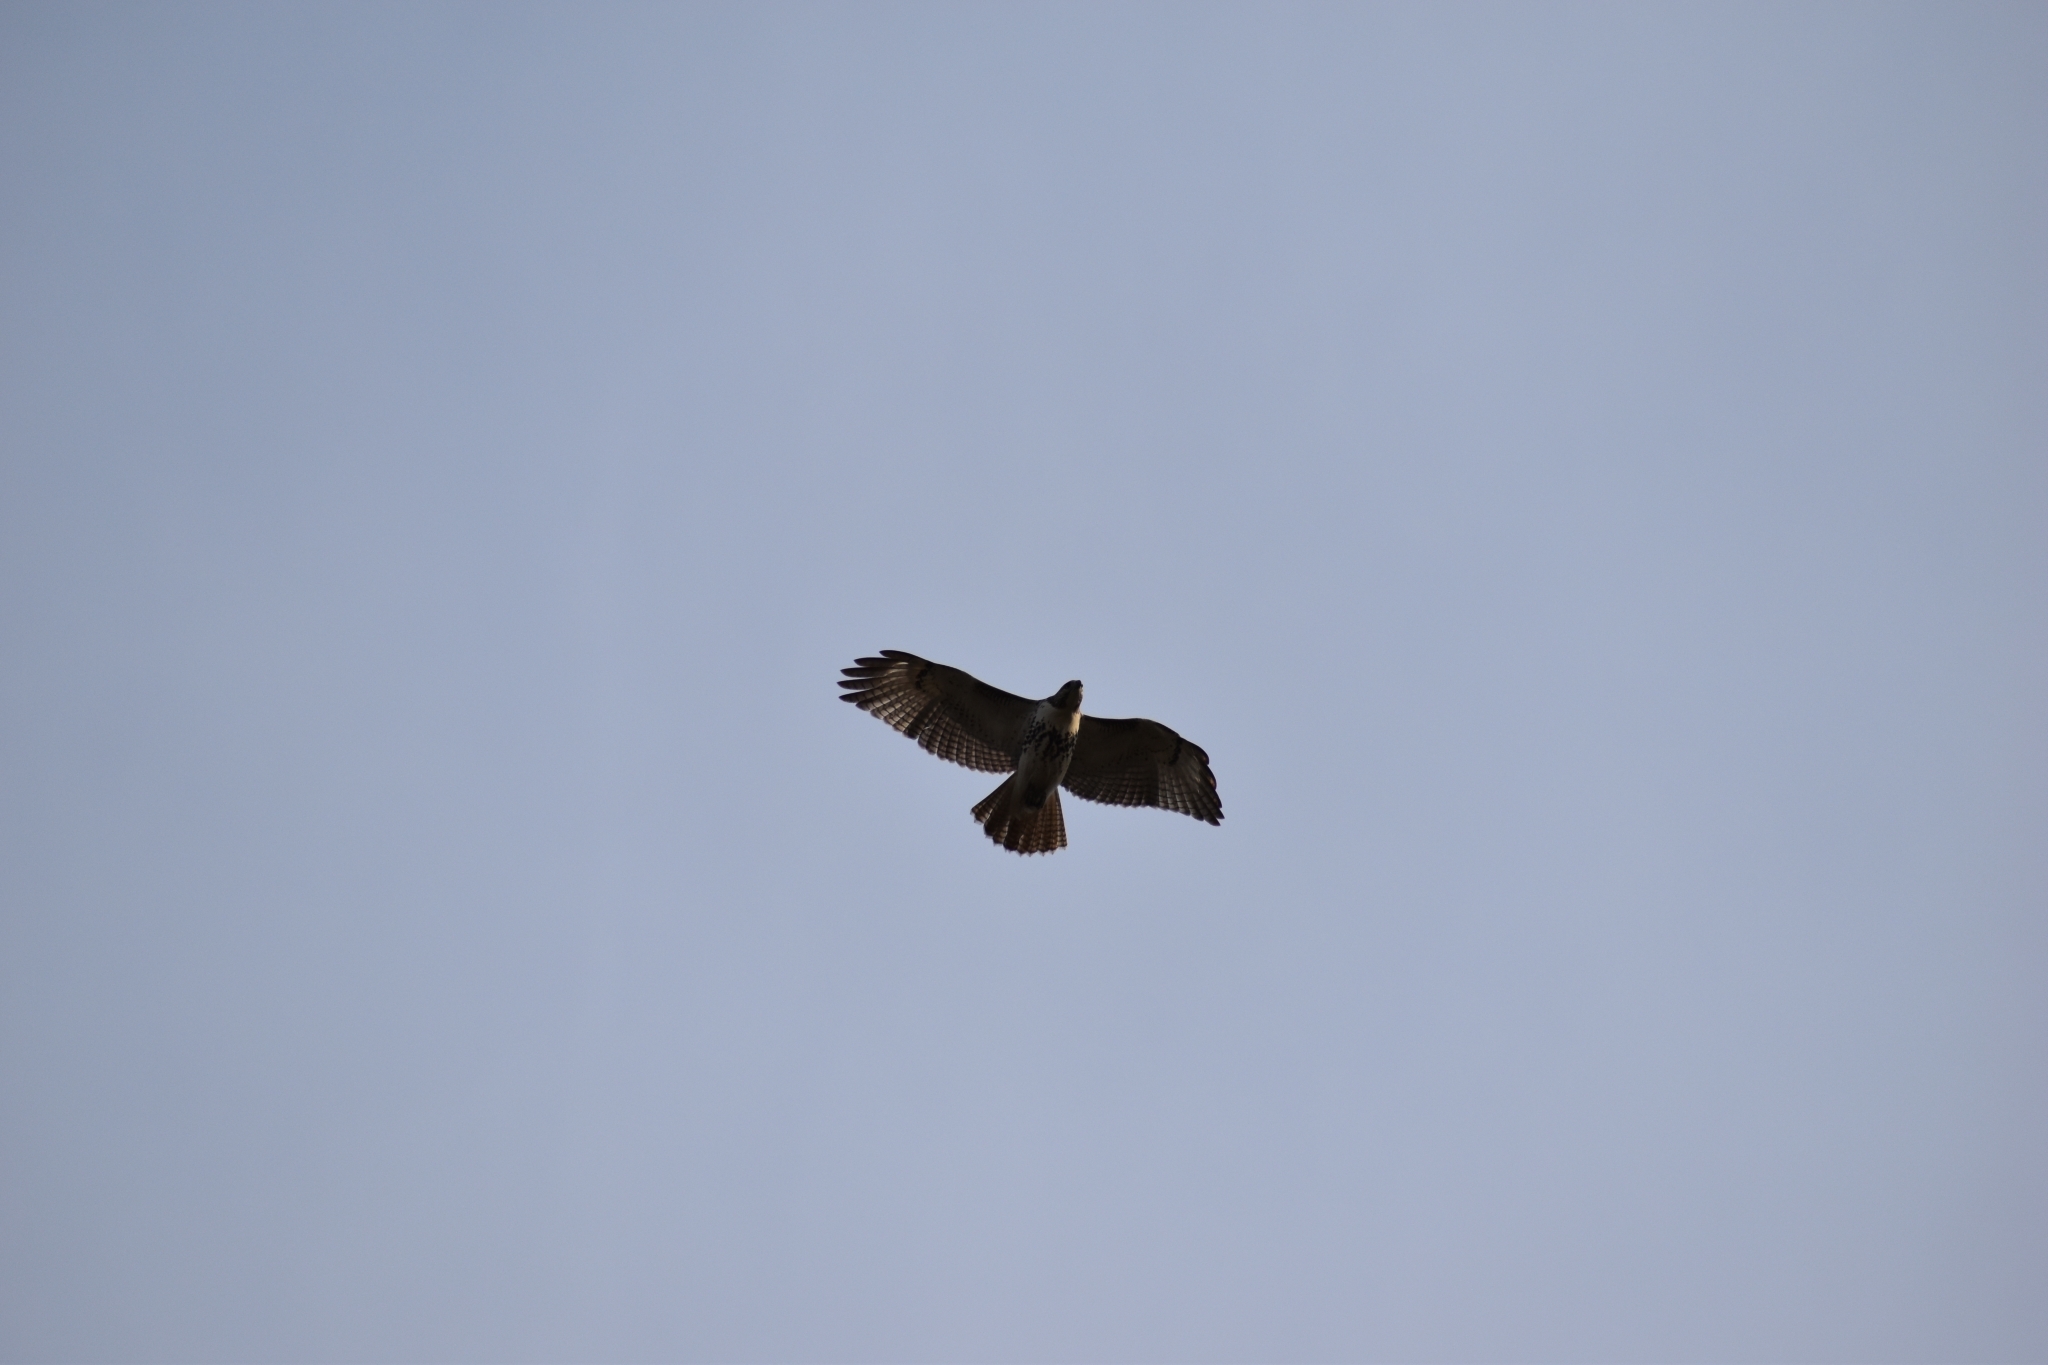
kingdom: Animalia
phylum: Chordata
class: Aves
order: Accipitriformes
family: Accipitridae
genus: Buteo
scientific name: Buteo jamaicensis
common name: Red-tailed hawk
